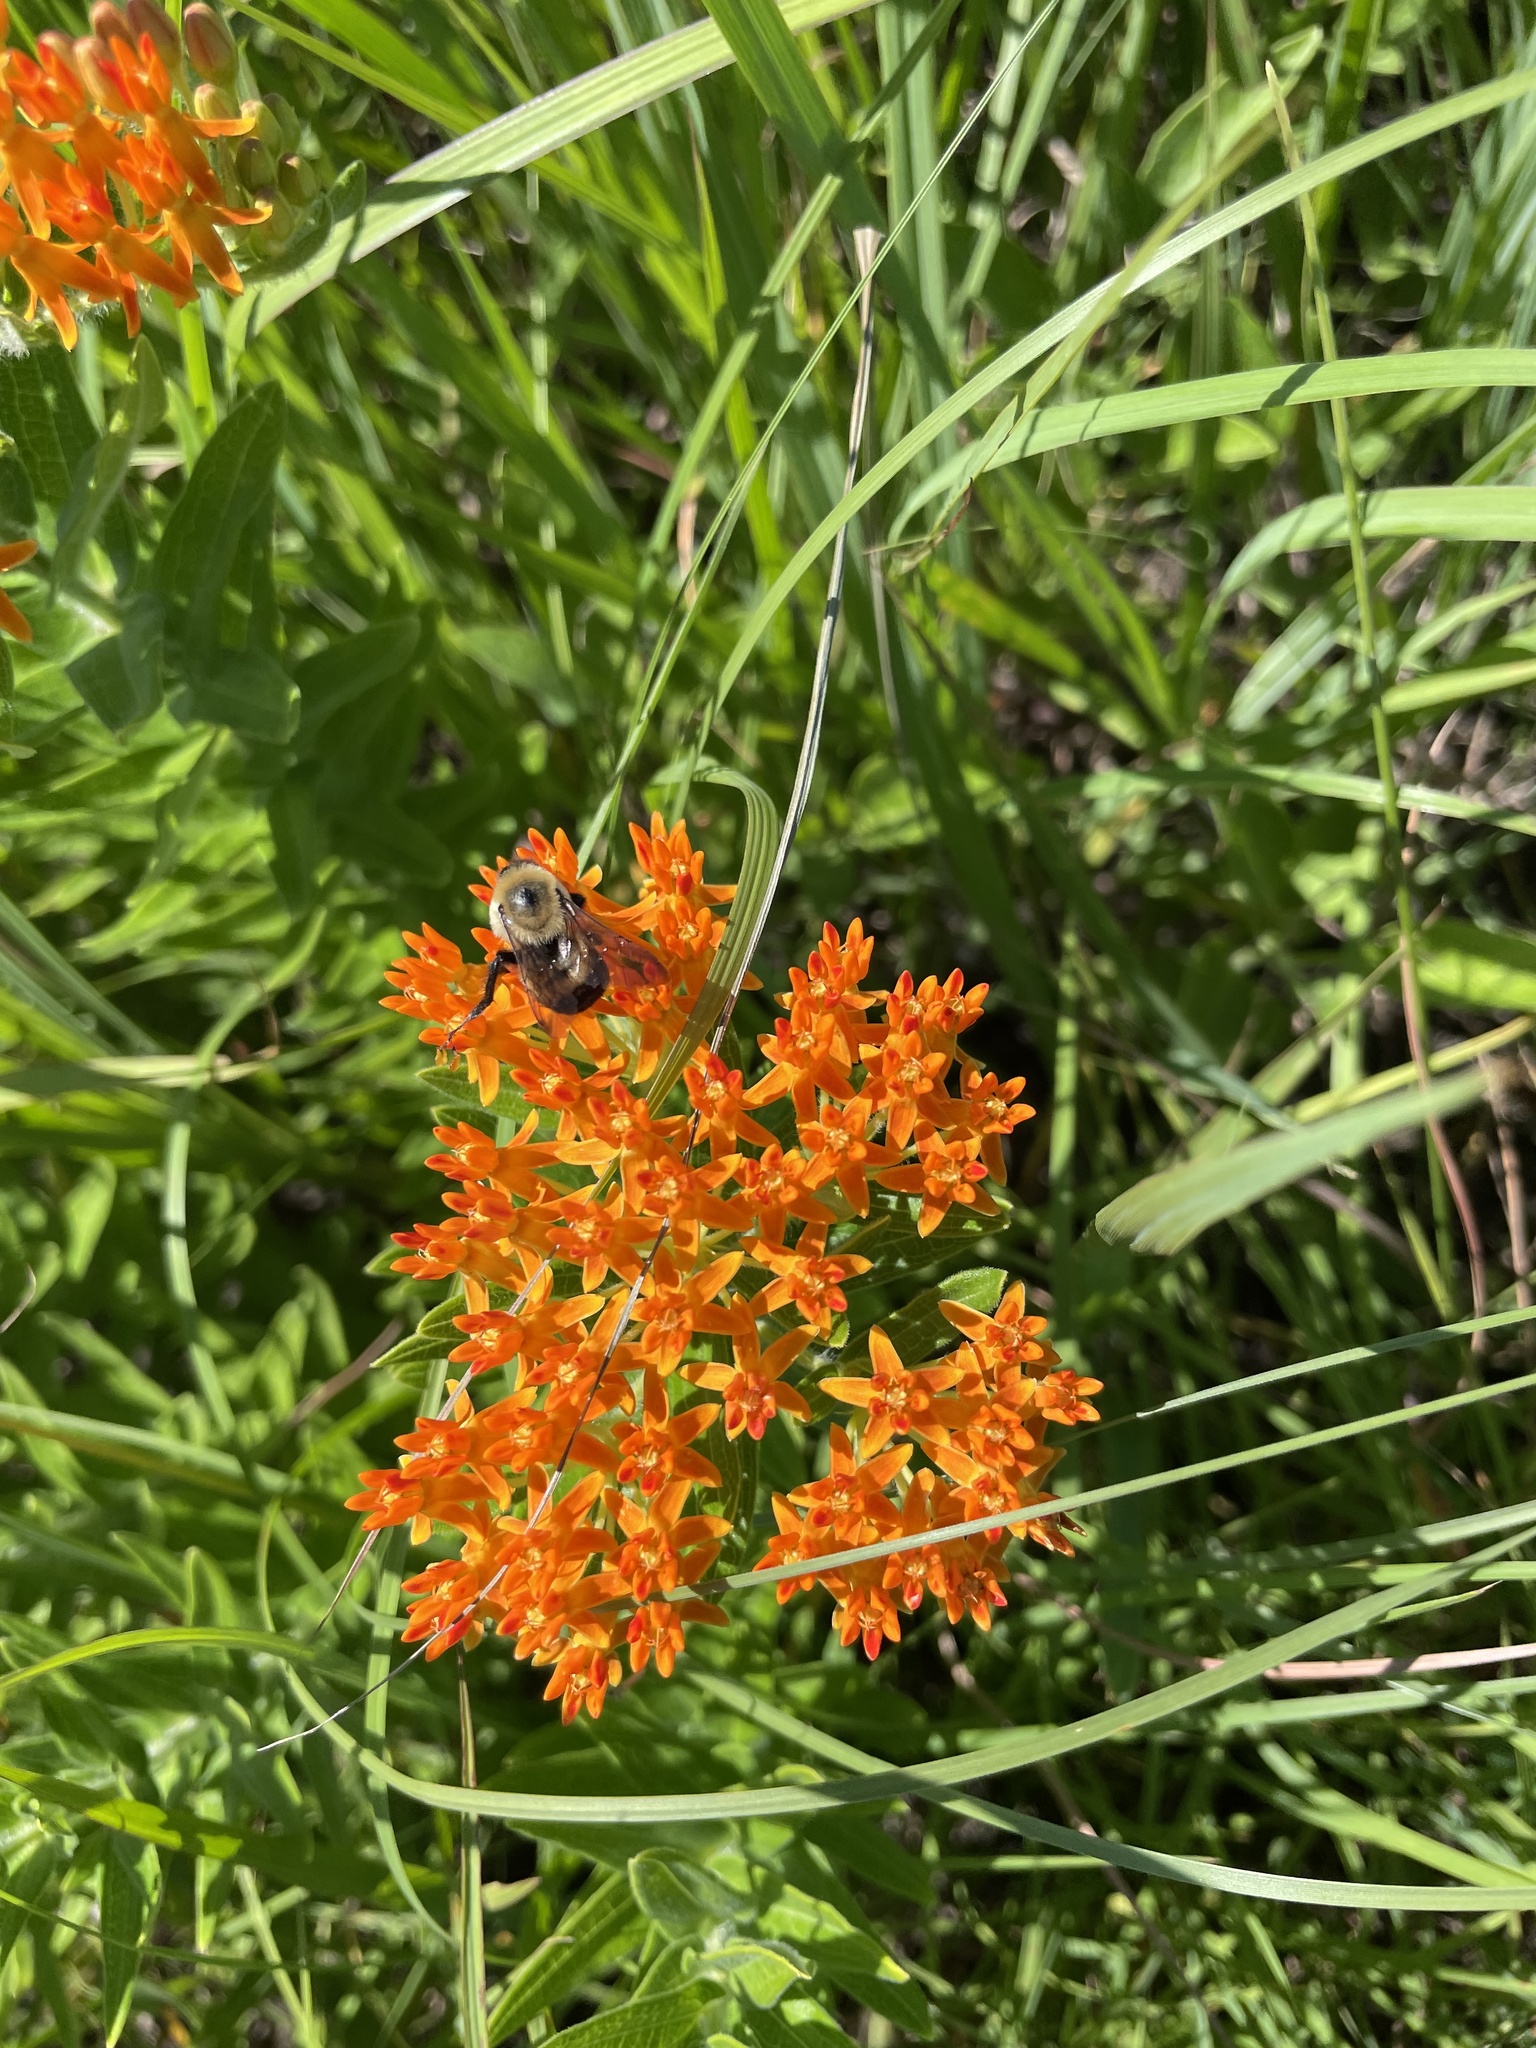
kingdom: Animalia
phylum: Arthropoda
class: Insecta
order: Hymenoptera
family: Apidae
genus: Bombus
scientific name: Bombus griseocollis
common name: Brown-belted bumble bee
